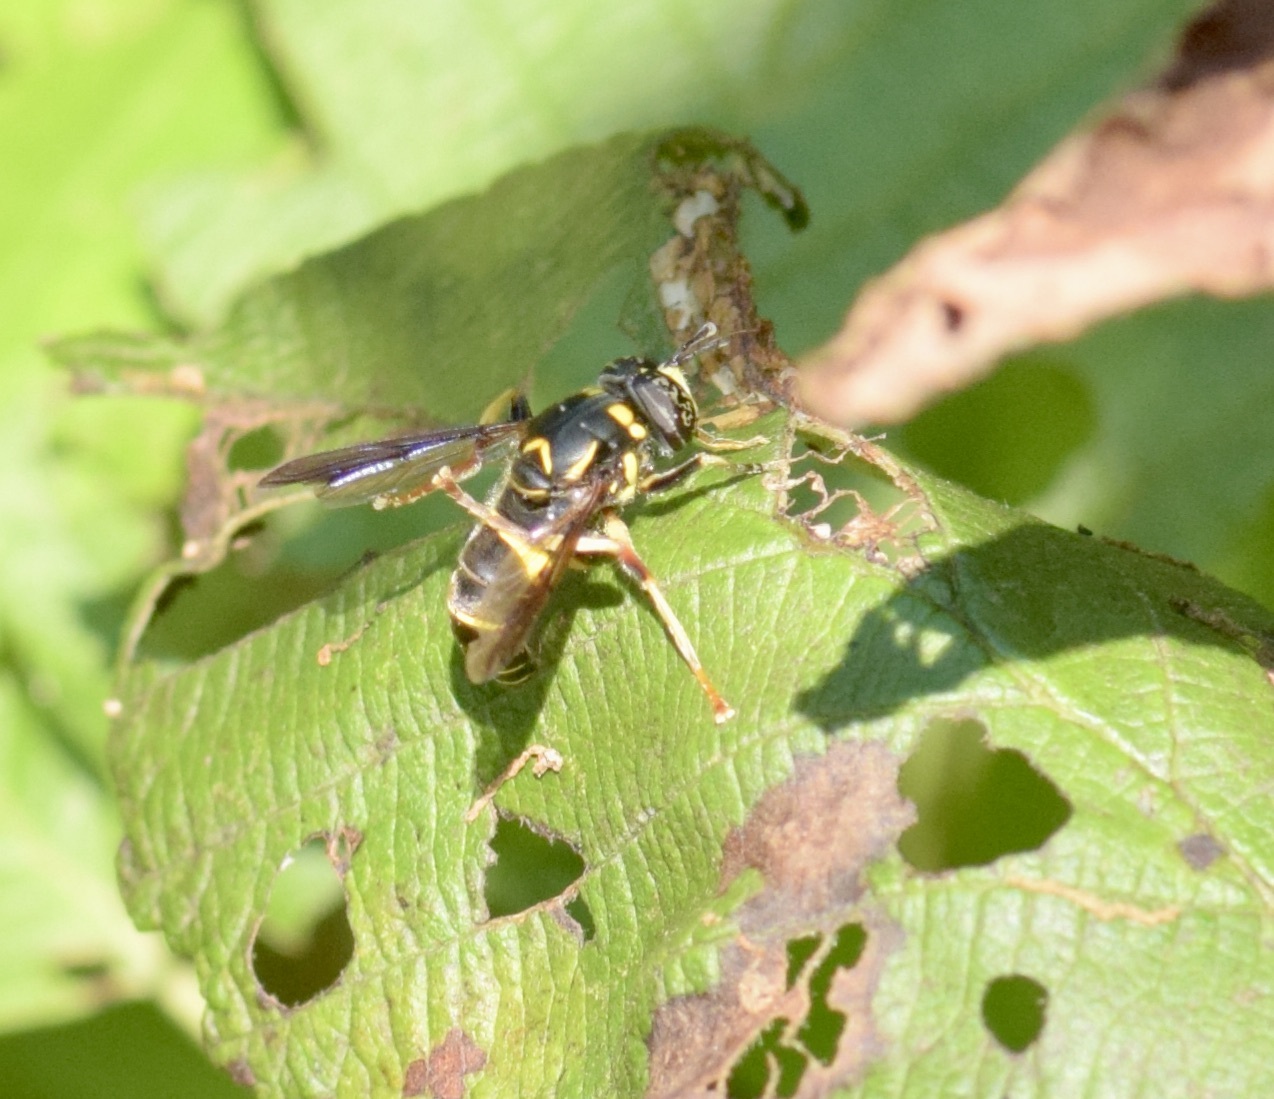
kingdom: Animalia
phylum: Arthropoda
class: Insecta
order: Diptera
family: Syrphidae
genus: Spilomyia
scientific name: Spilomyia sayi
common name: Four-lined hornet fly
